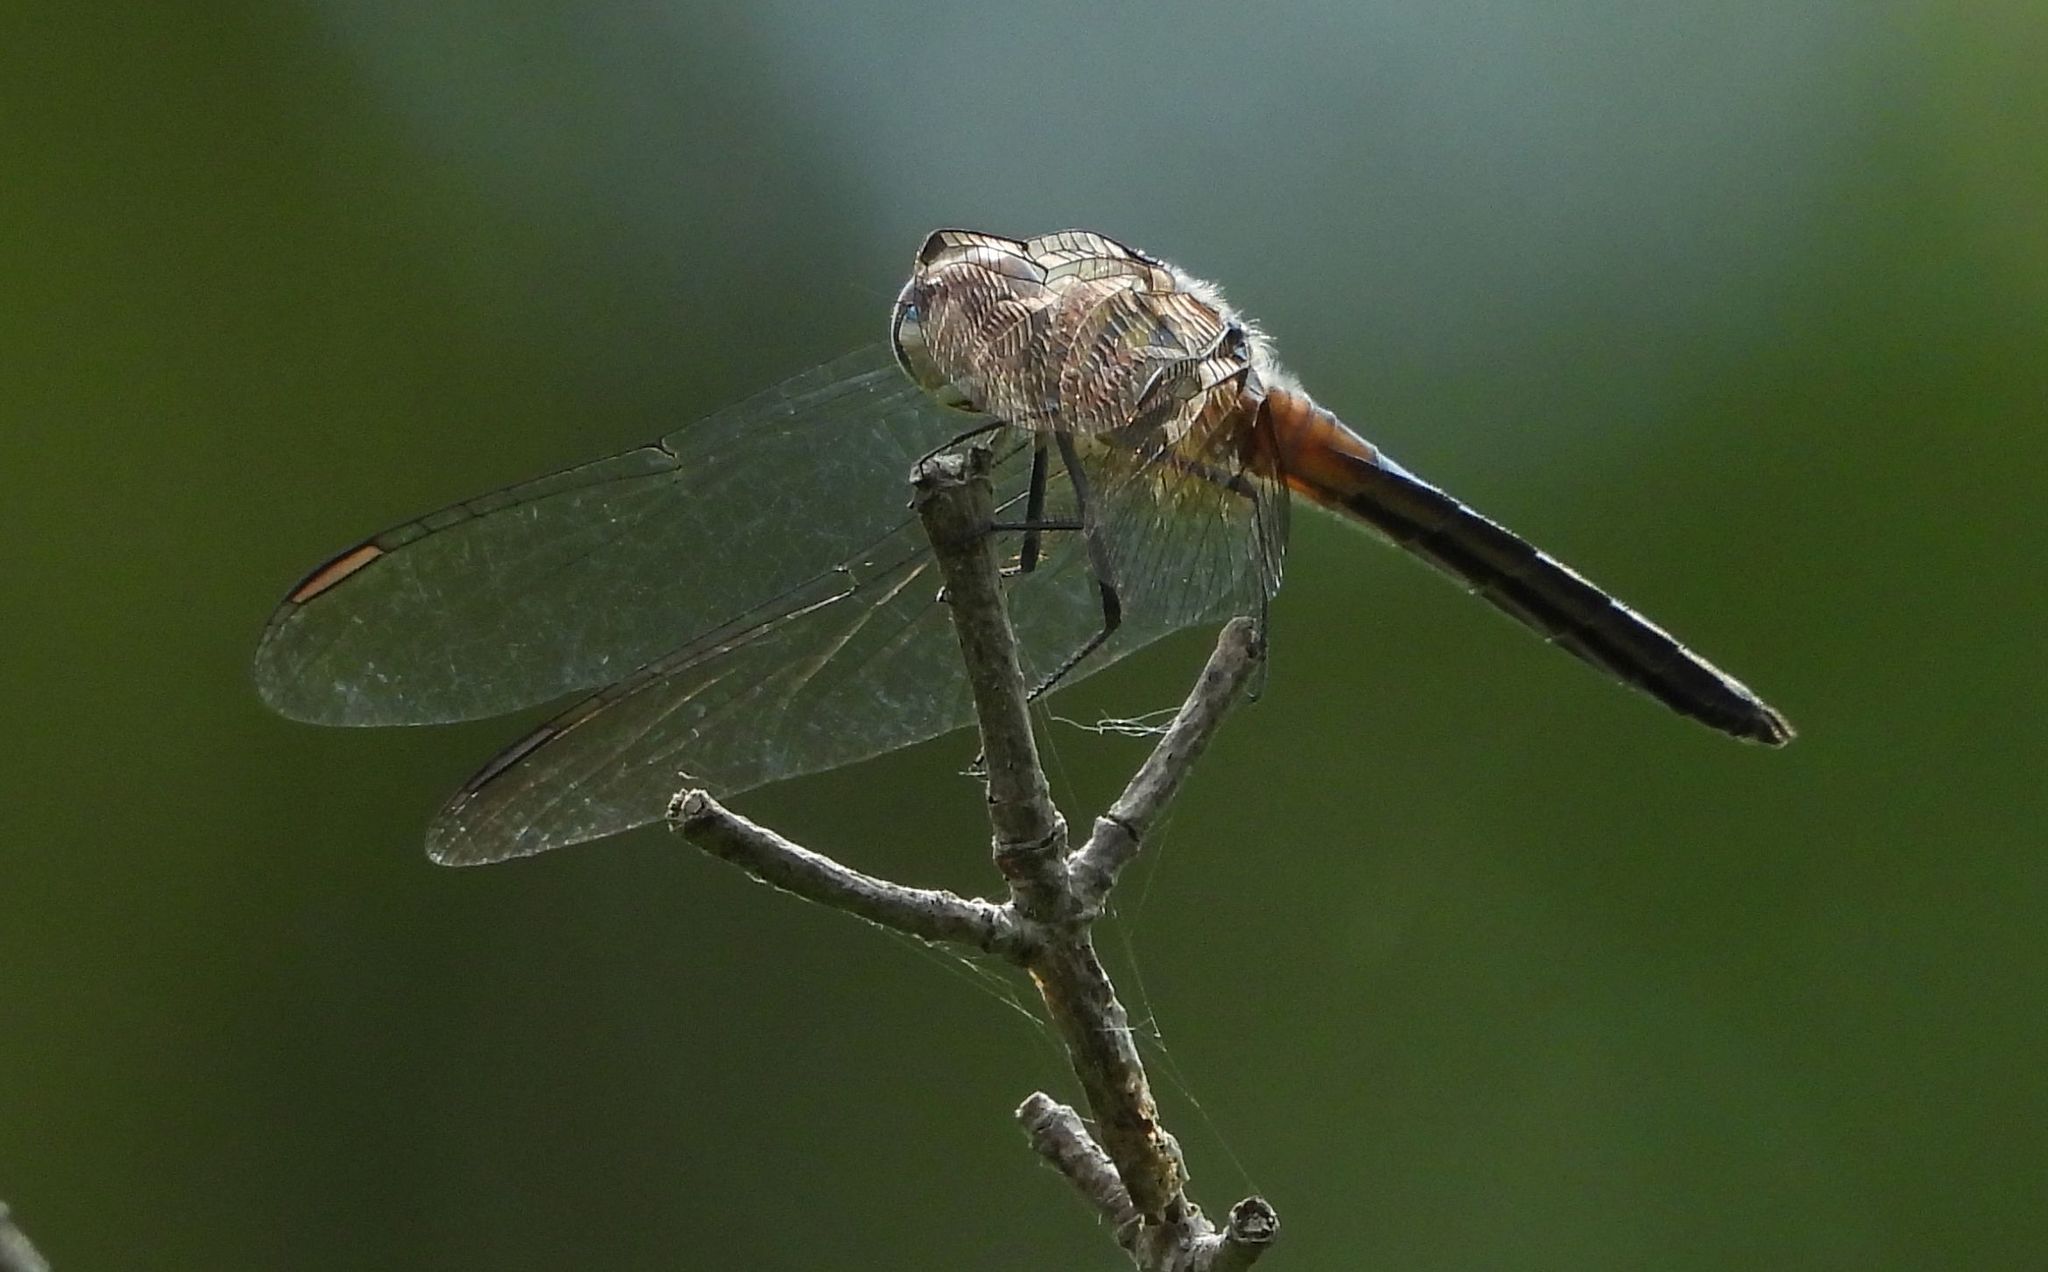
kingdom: Animalia
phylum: Arthropoda
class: Insecta
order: Odonata
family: Libellulidae
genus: Pachydiplax
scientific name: Pachydiplax longipennis
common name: Blue dasher
